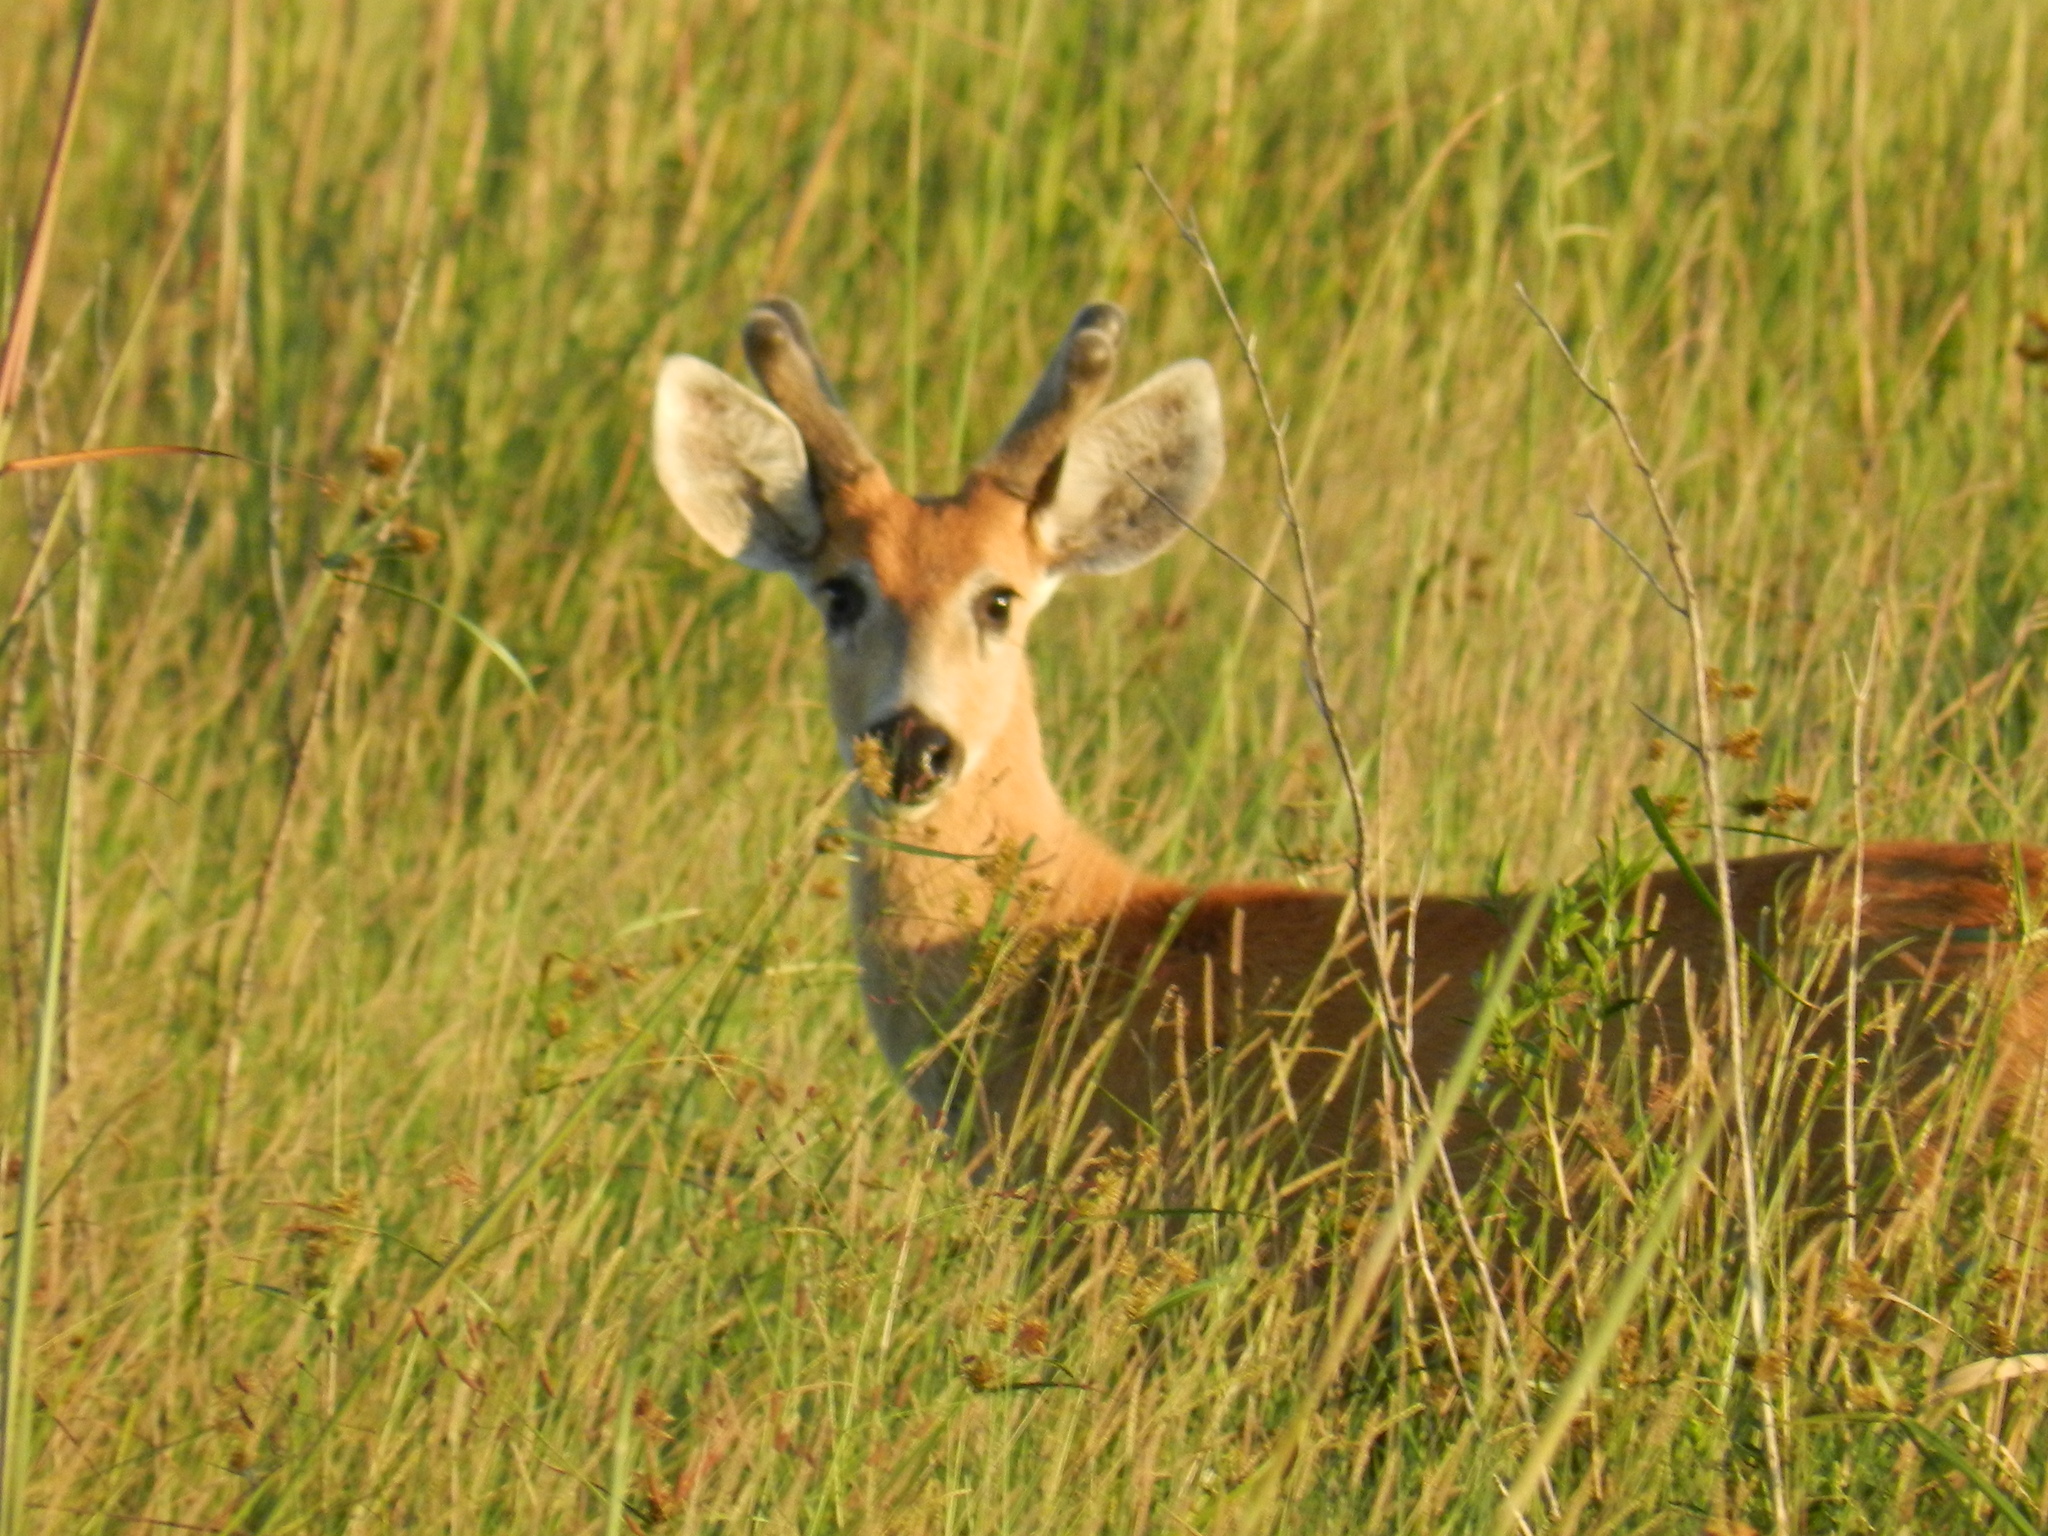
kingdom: Animalia
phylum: Chordata
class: Mammalia
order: Artiodactyla
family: Cervidae
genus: Blastocerus
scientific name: Blastocerus dichotomus
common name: Marsh deer
